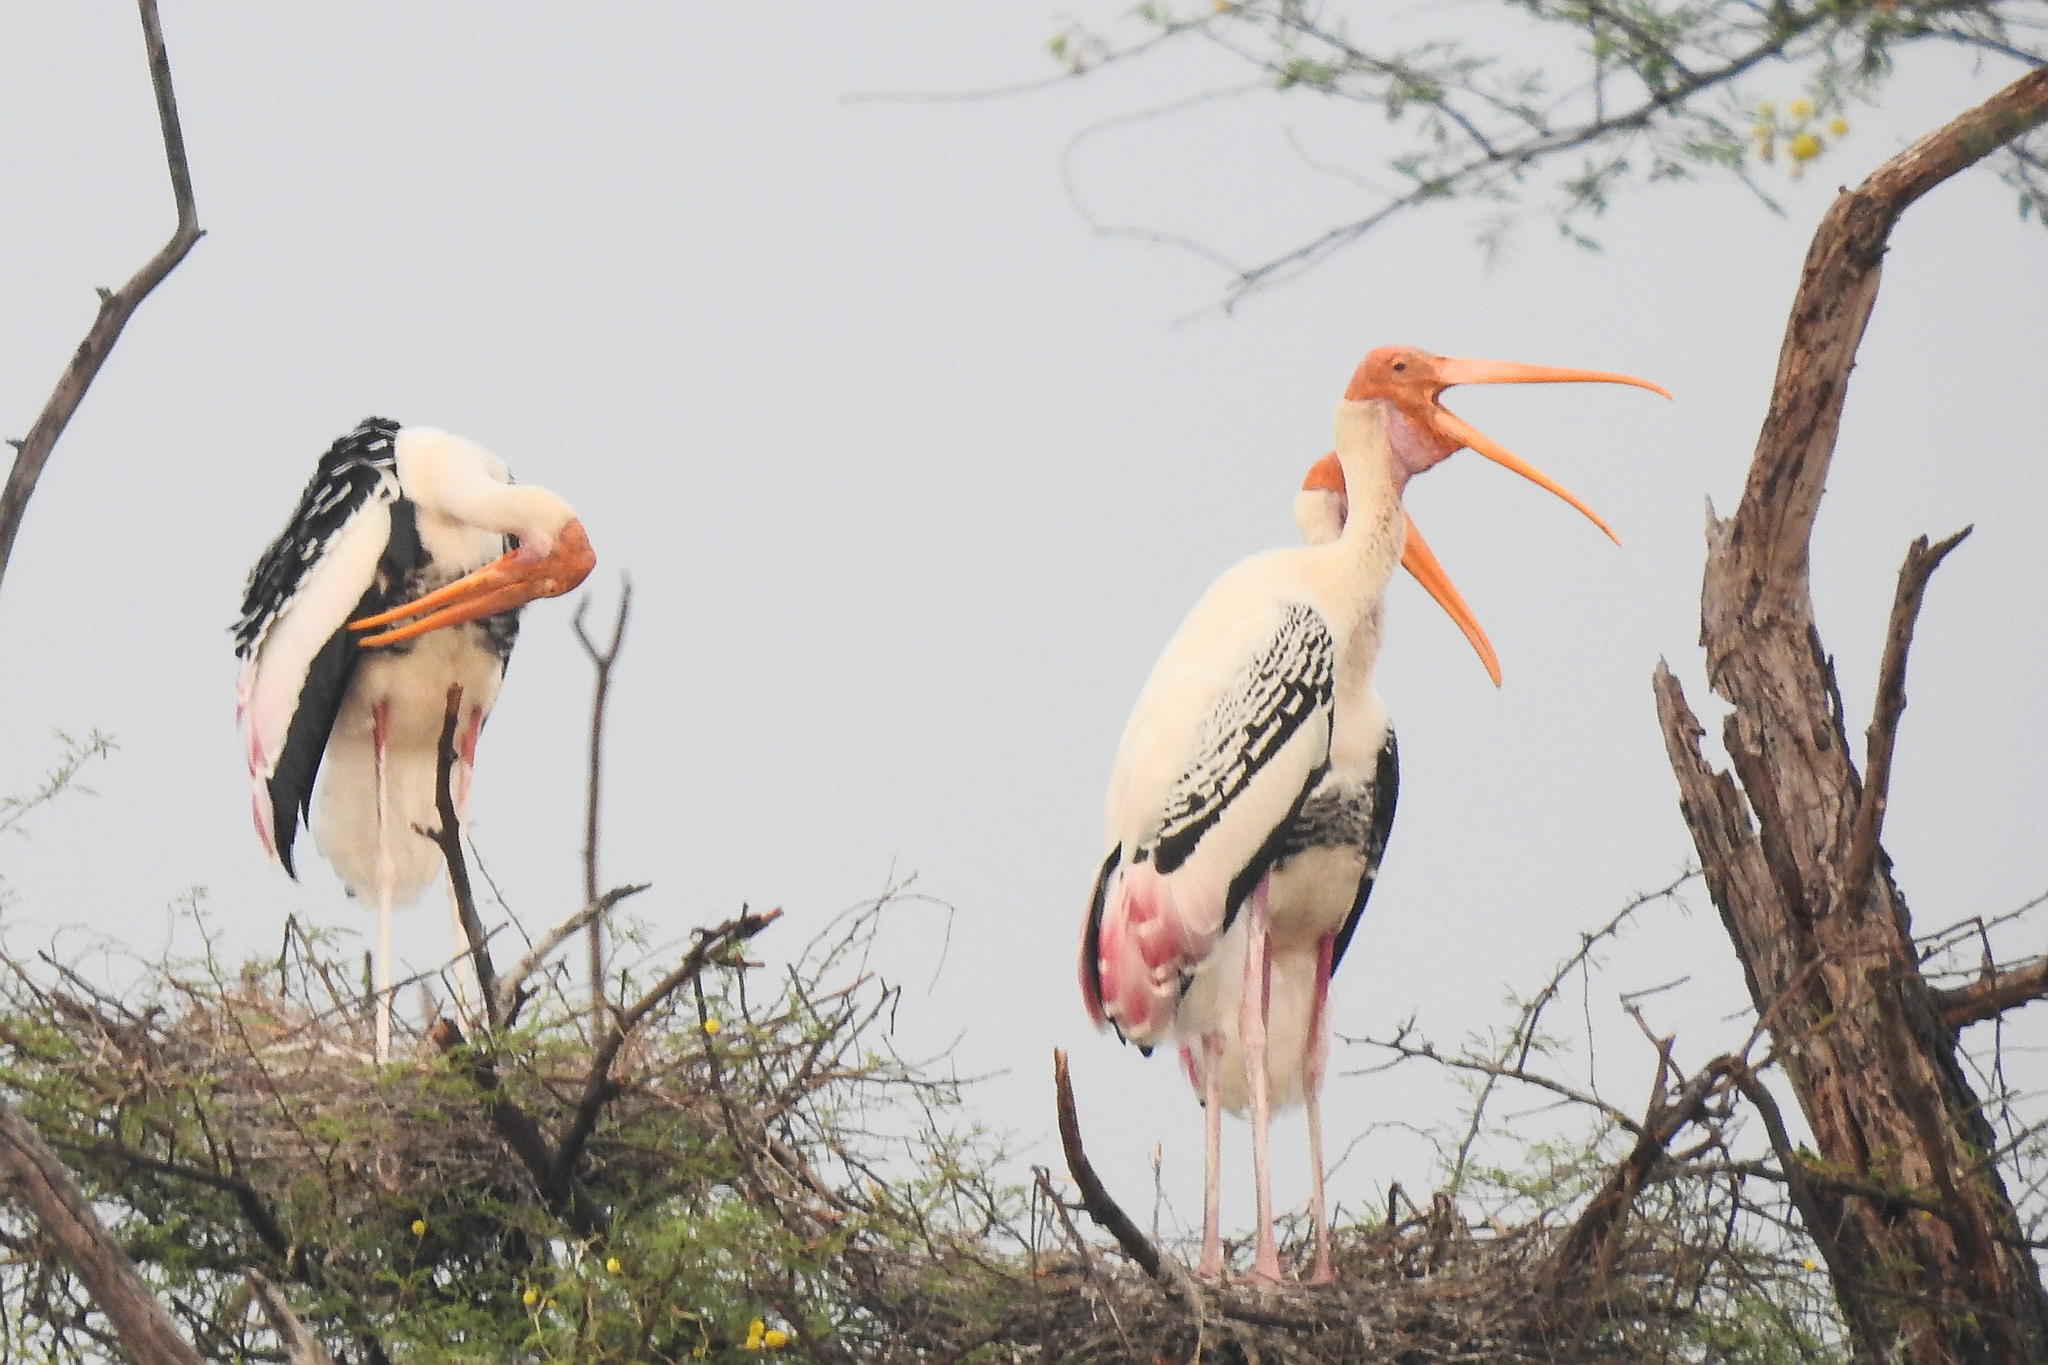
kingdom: Animalia
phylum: Chordata
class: Aves
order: Ciconiiformes
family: Ciconiidae
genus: Mycteria
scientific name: Mycteria leucocephala
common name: Painted stork
